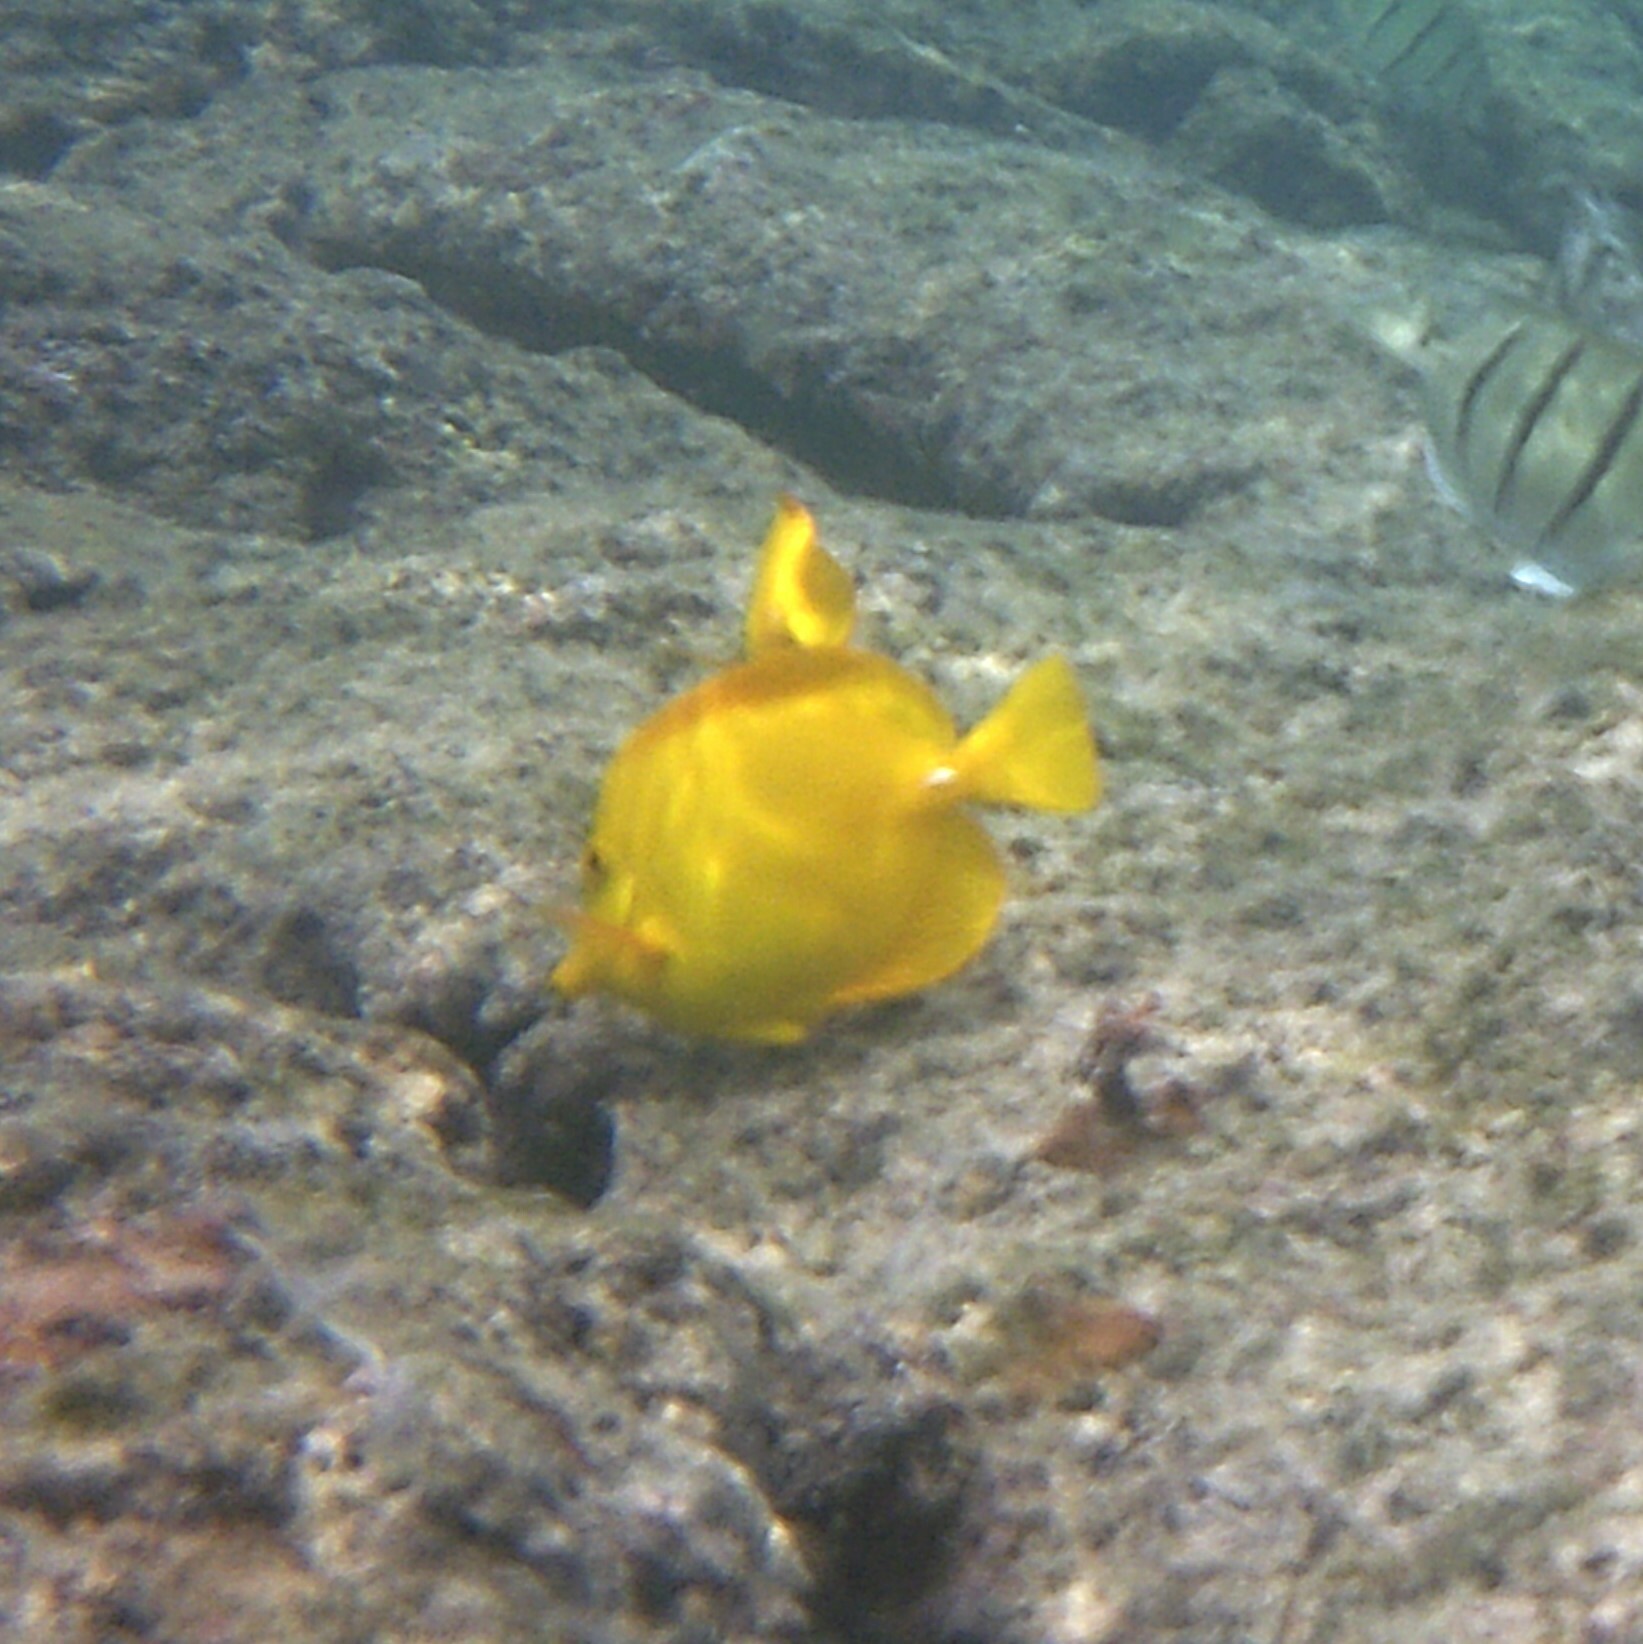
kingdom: Animalia
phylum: Chordata
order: Perciformes
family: Acanthuridae
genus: Zebrasoma
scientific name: Zebrasoma flavescens
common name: Yellow tang
